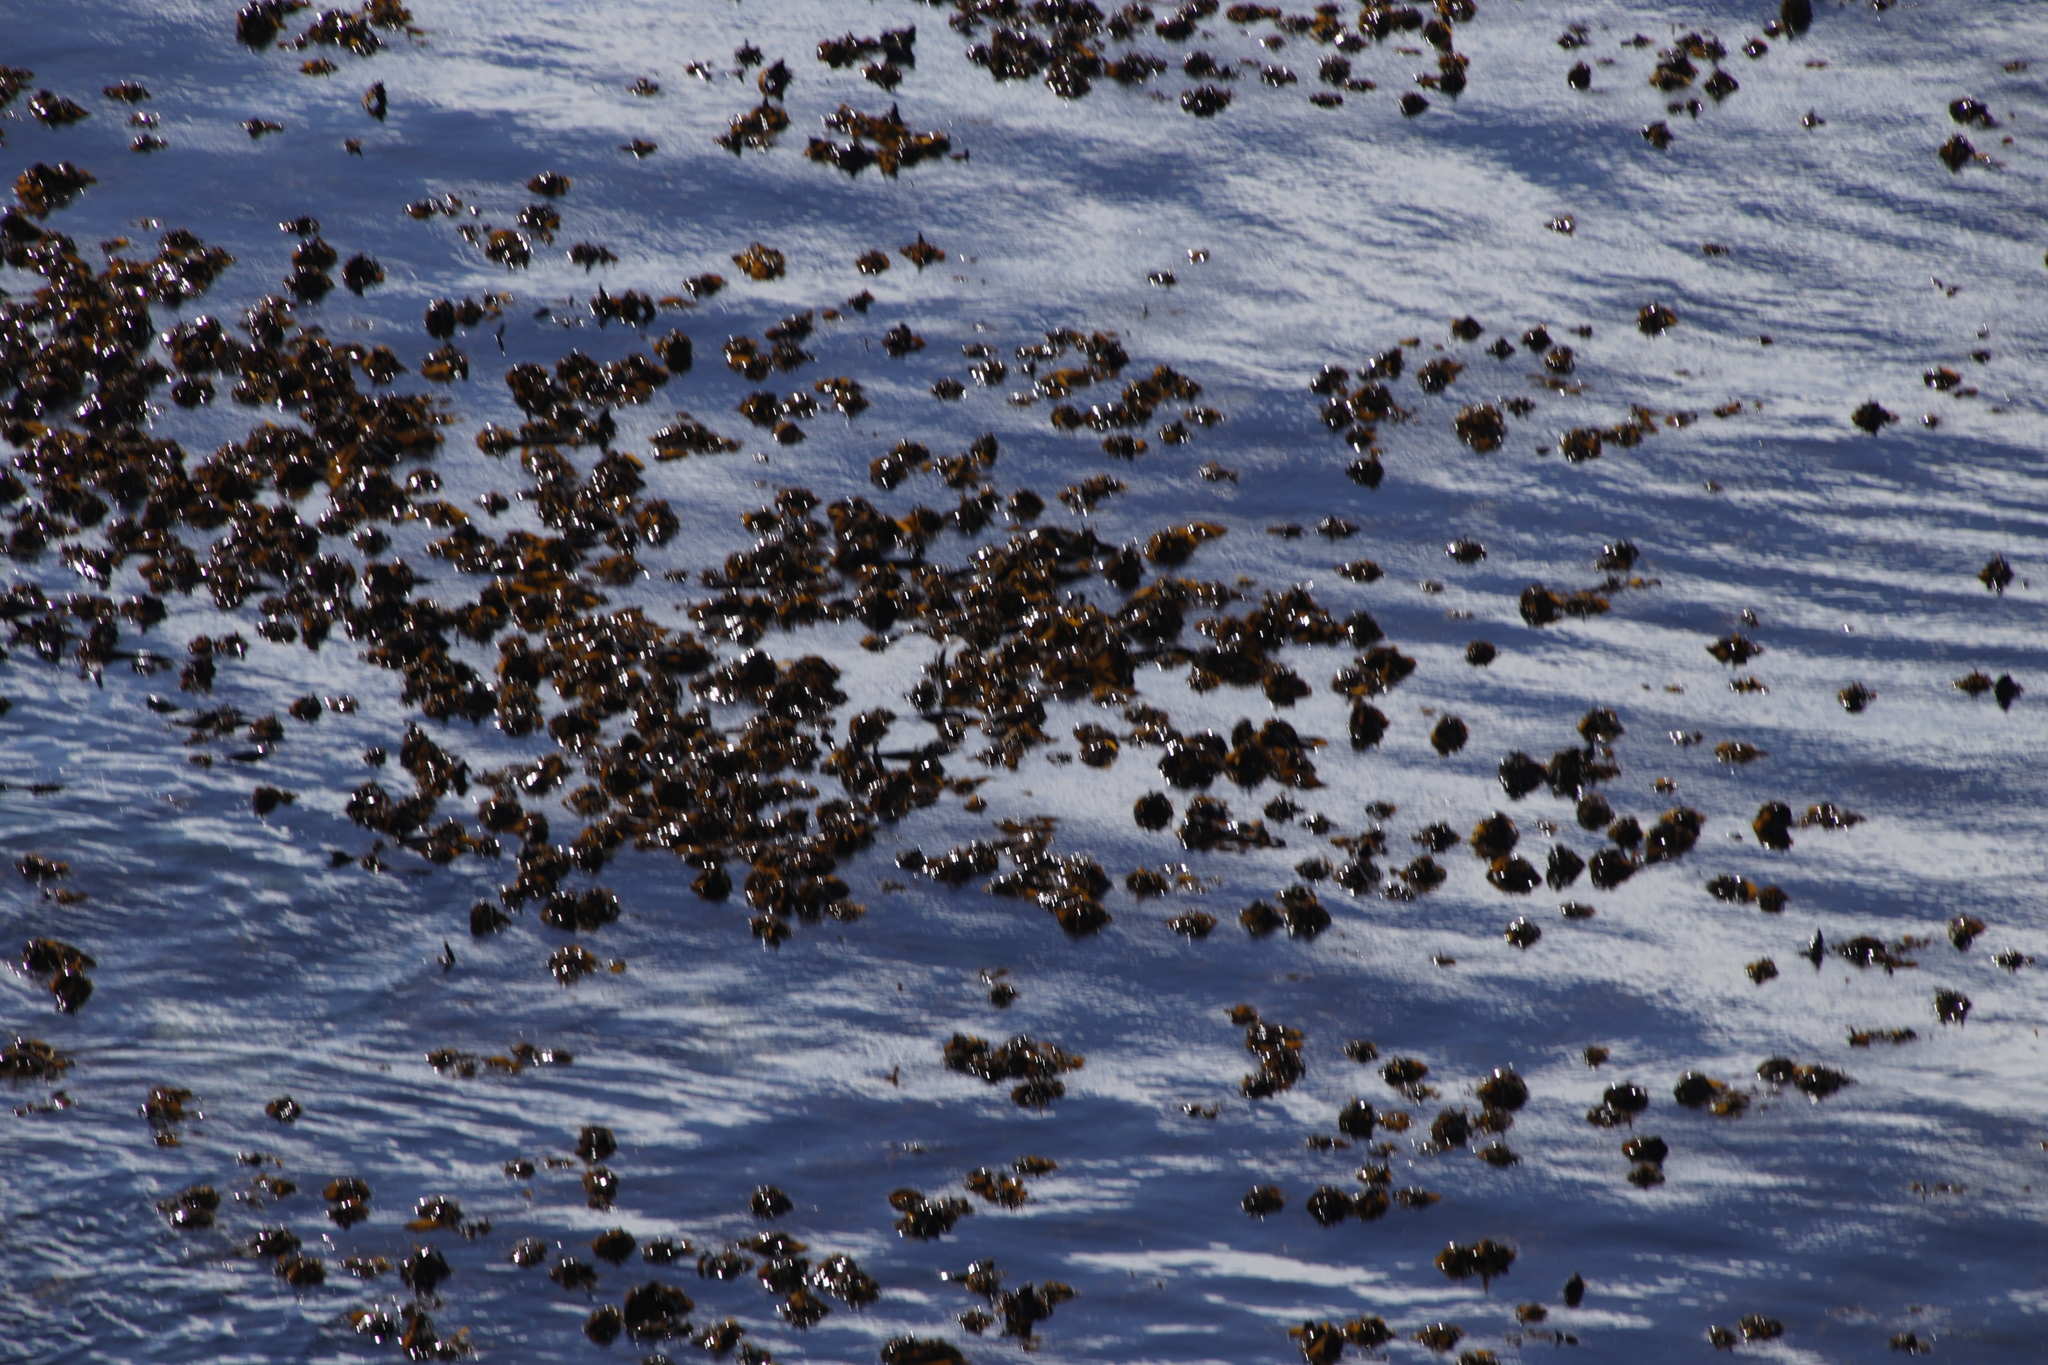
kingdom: Chromista
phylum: Ochrophyta
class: Phaeophyceae
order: Laminariales
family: Lessoniaceae
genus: Ecklonia
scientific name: Ecklonia
